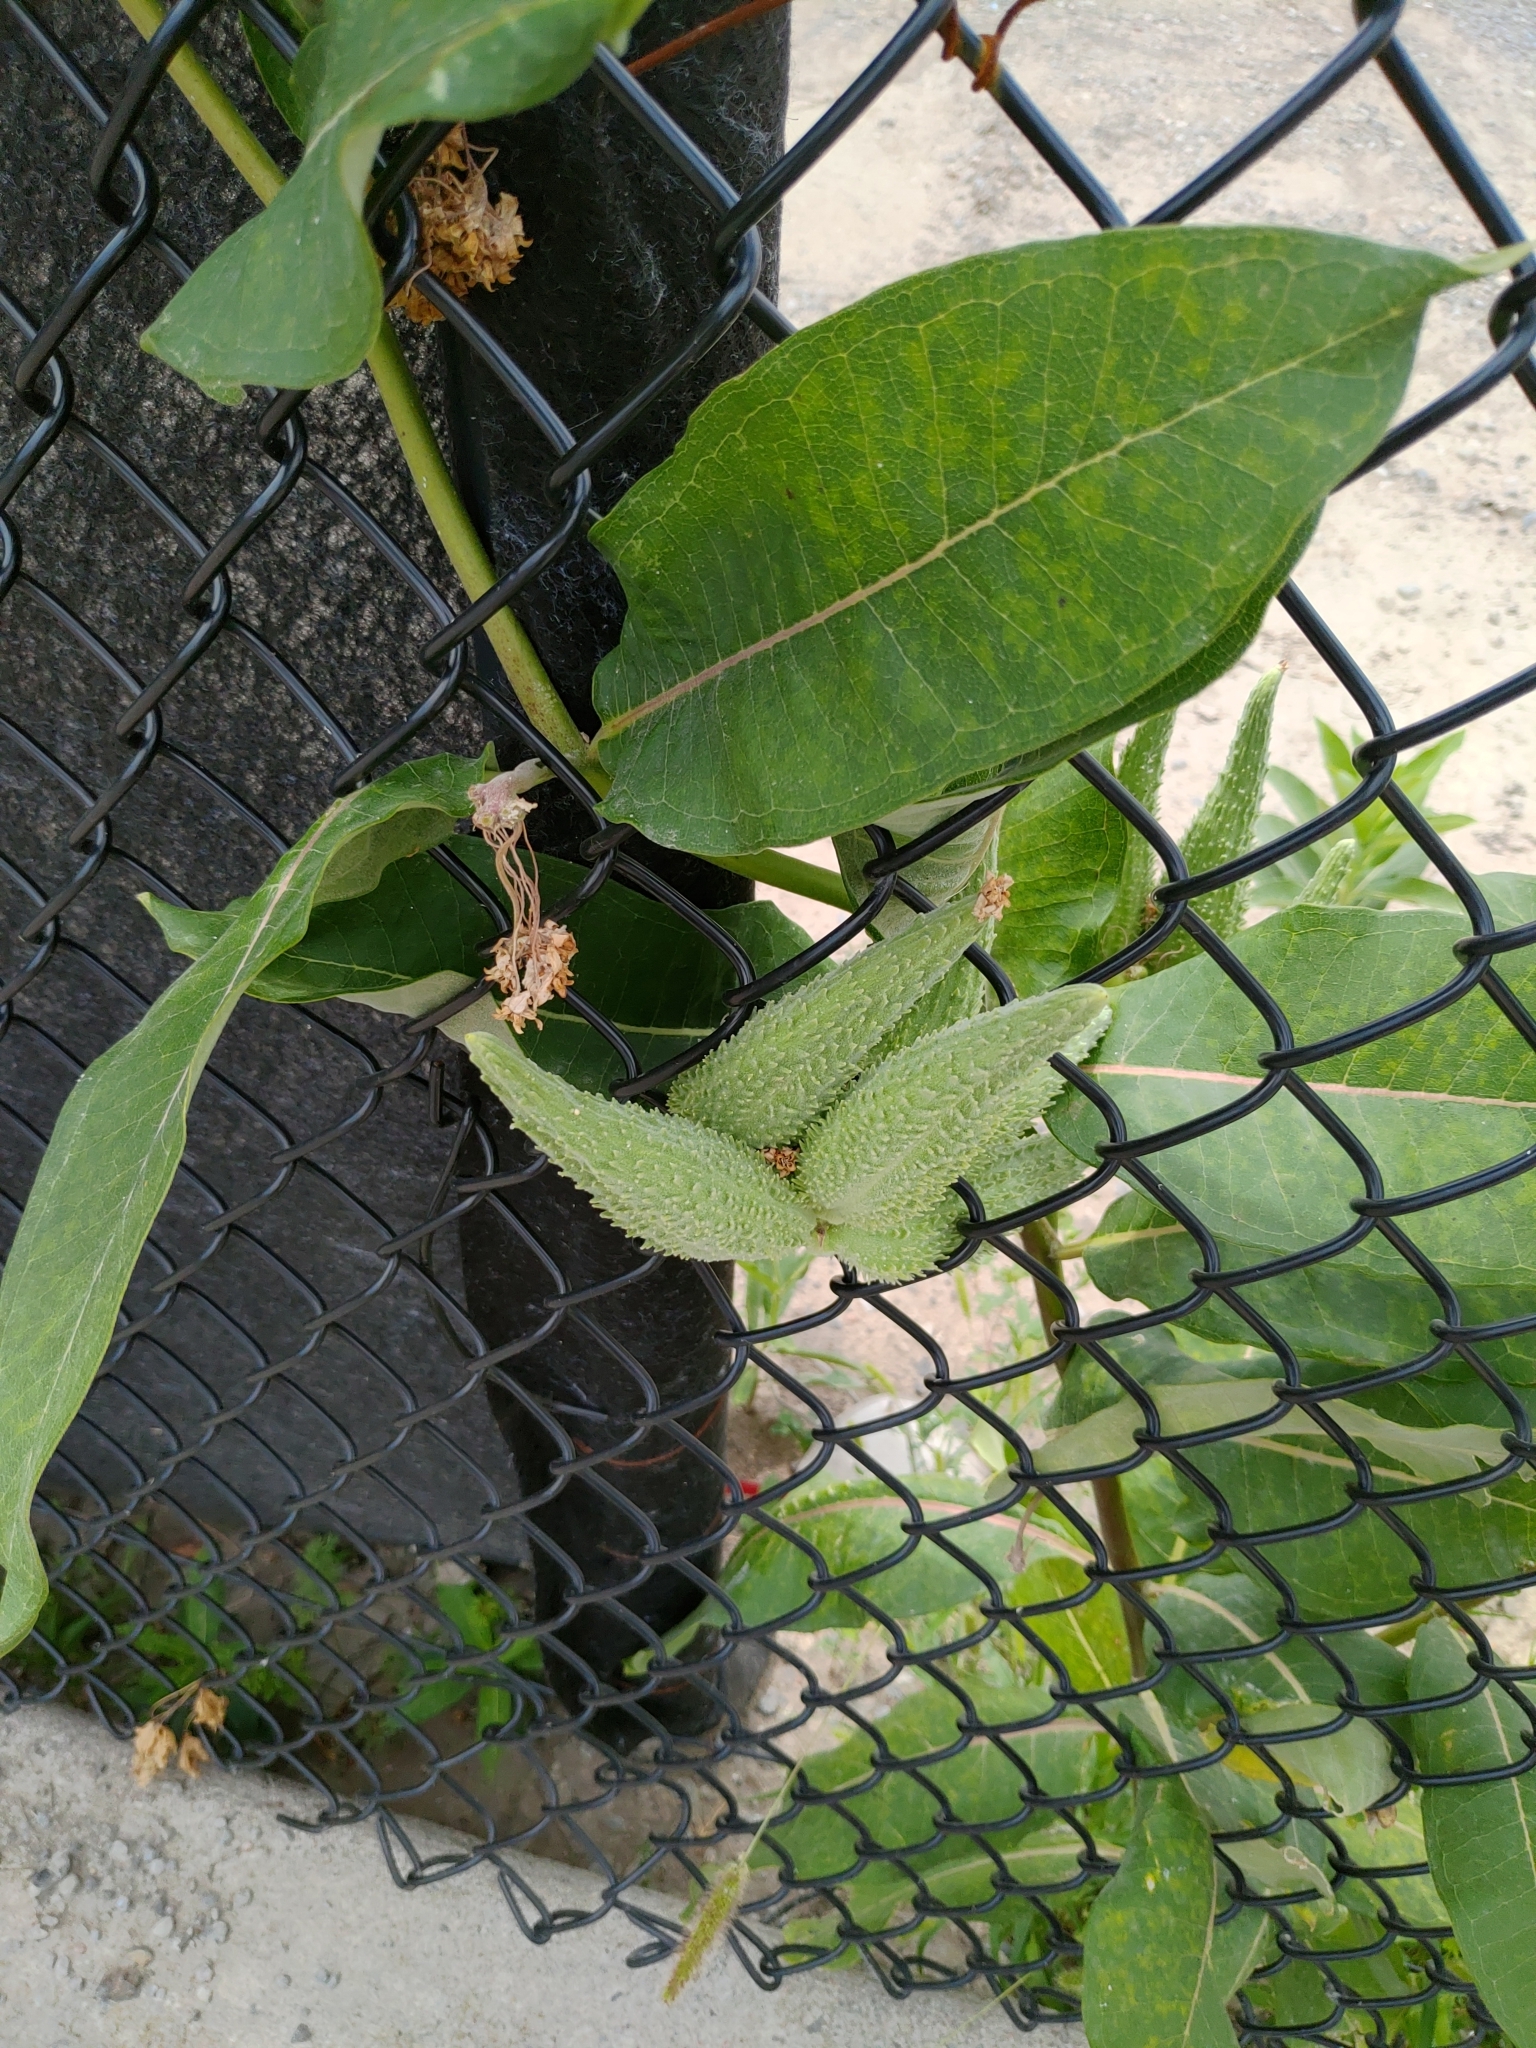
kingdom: Plantae
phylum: Tracheophyta
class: Magnoliopsida
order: Gentianales
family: Apocynaceae
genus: Asclepias
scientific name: Asclepias syriaca
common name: Common milkweed
